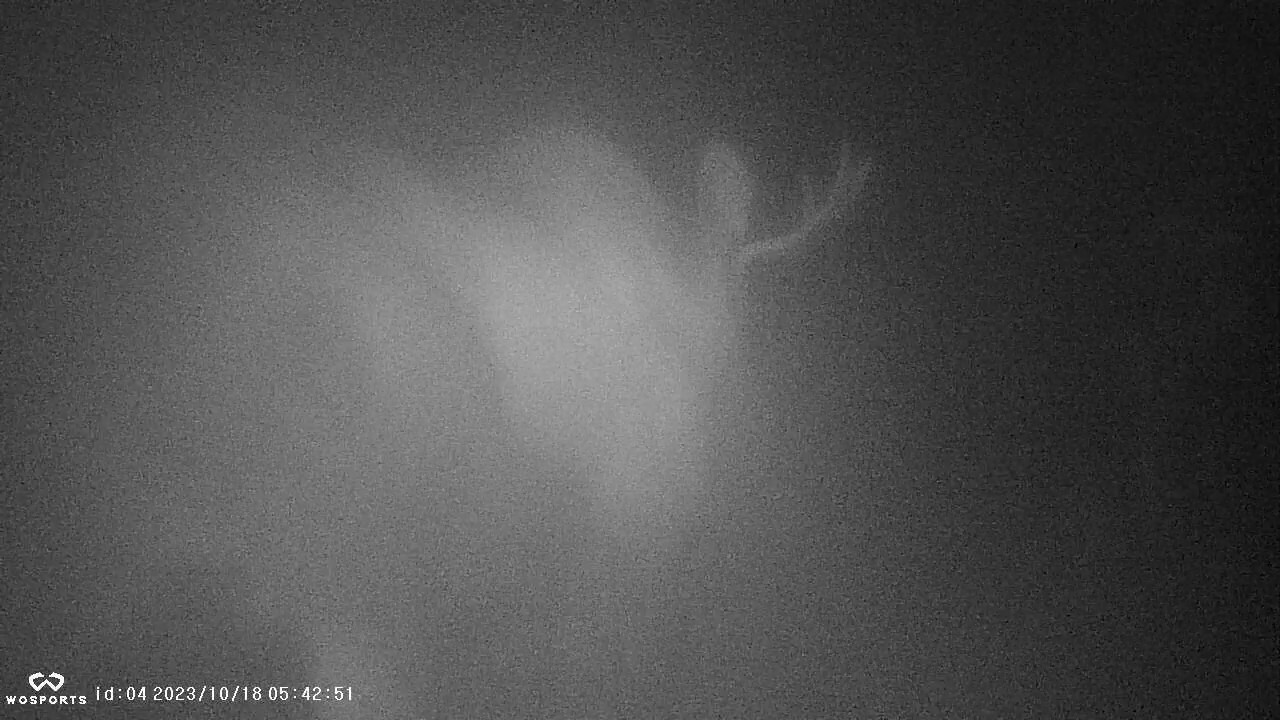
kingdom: Animalia
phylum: Chordata
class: Mammalia
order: Artiodactyla
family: Cervidae
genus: Alces
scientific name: Alces alces
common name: Moose
